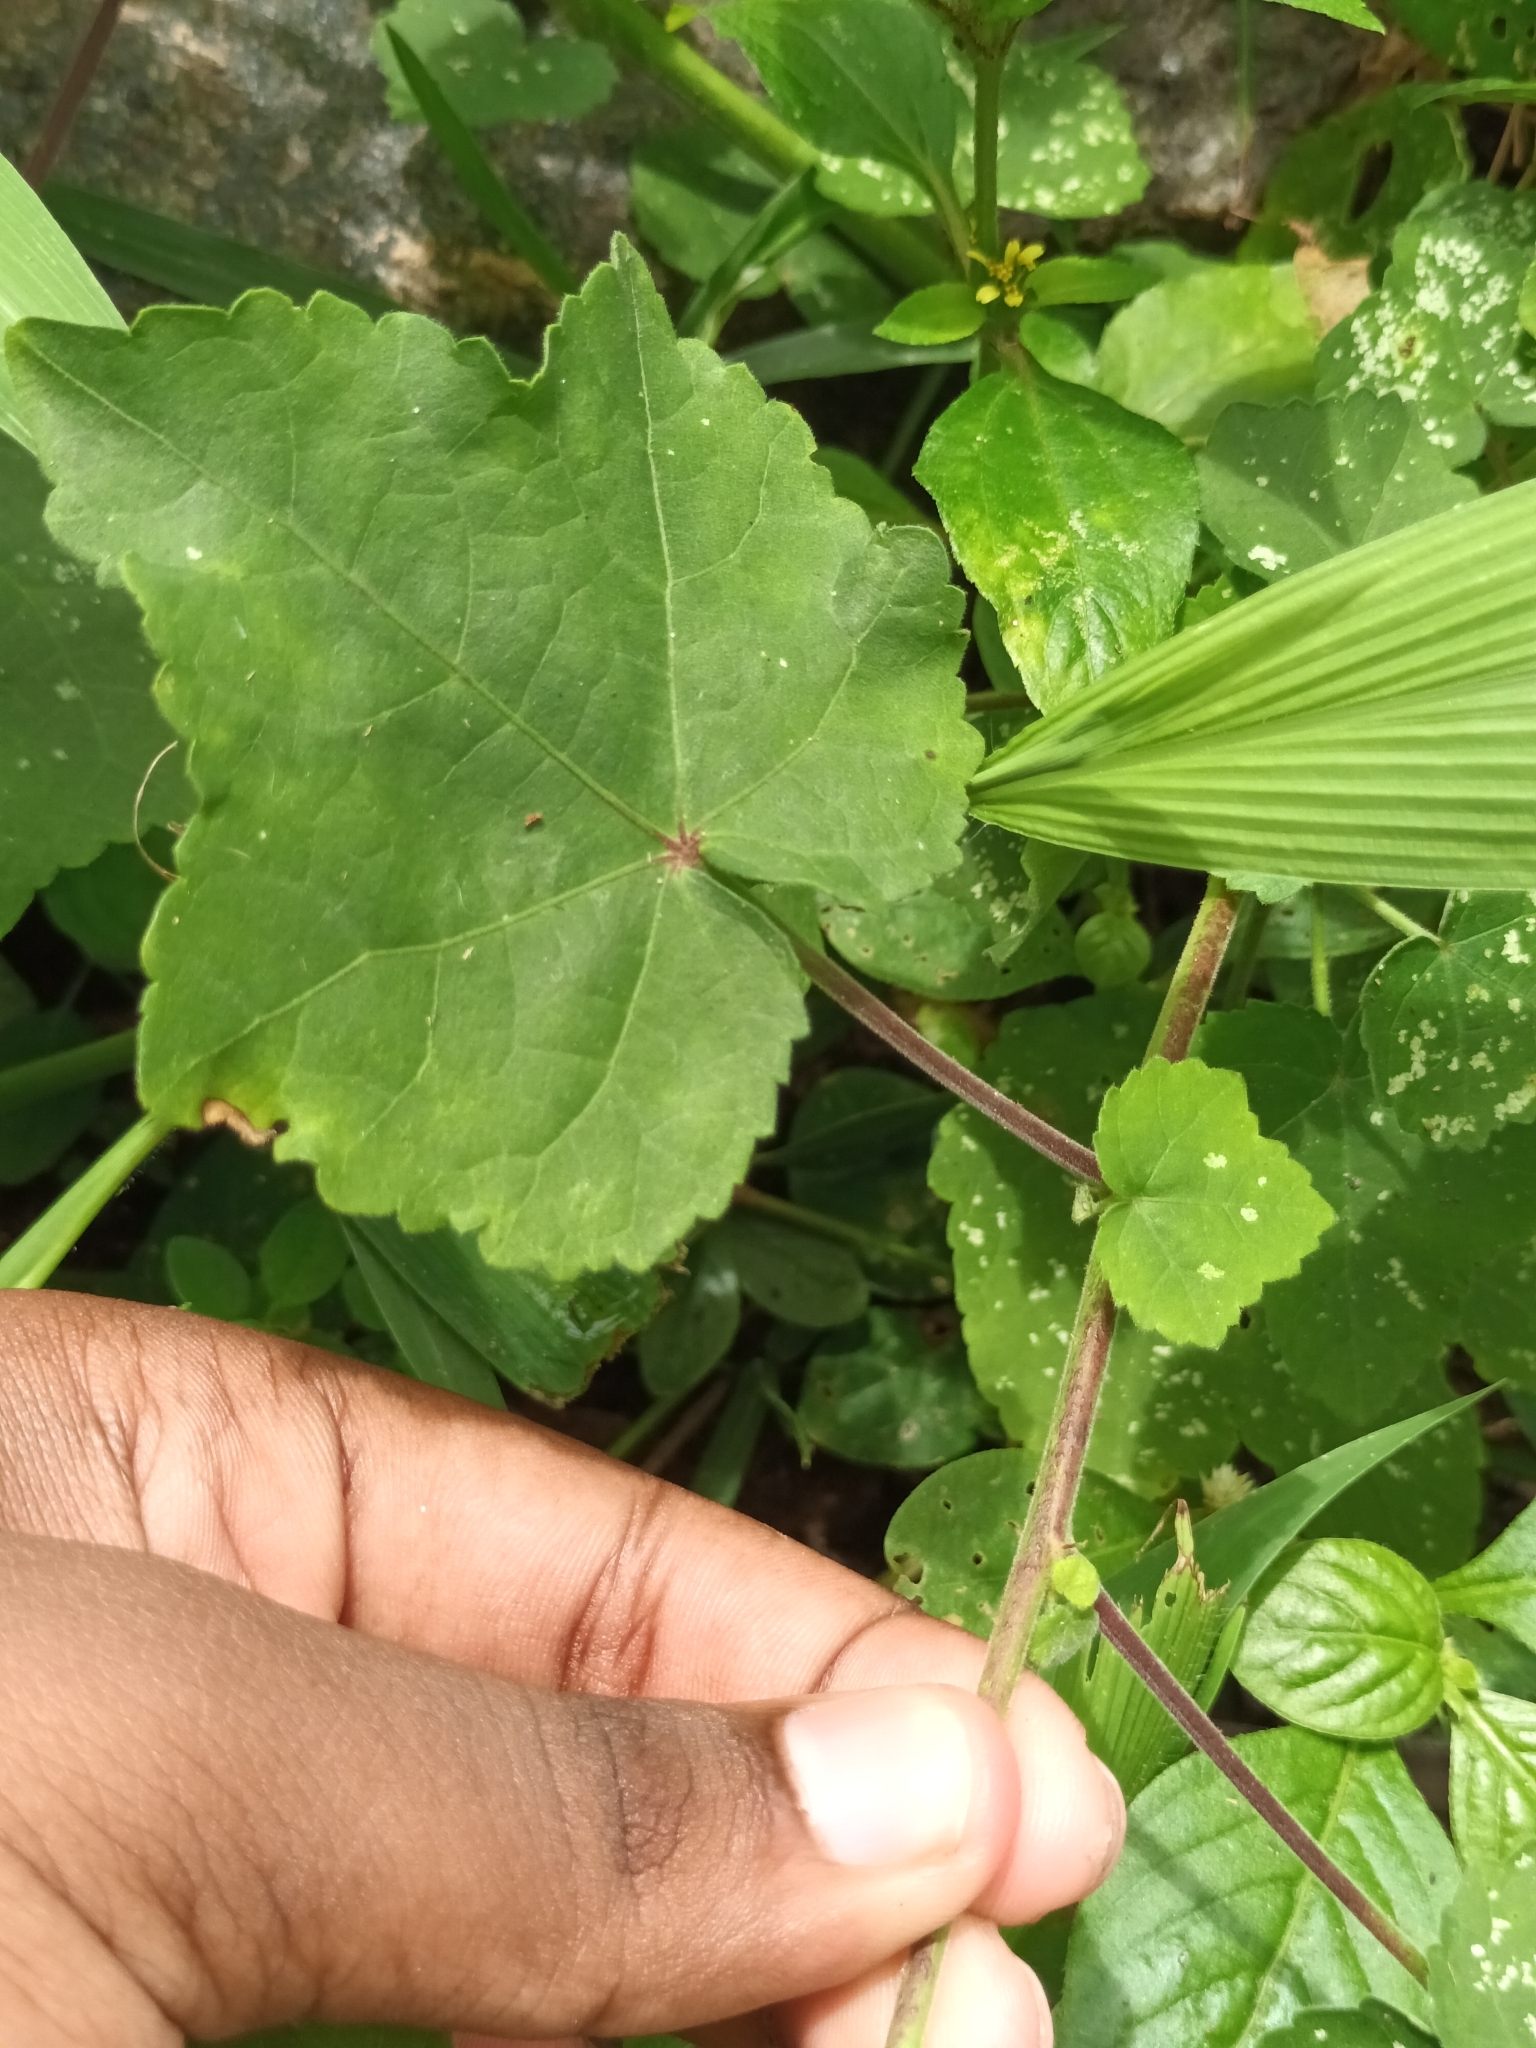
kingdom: Plantae
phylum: Tracheophyta
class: Magnoliopsida
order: Malvales
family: Malvaceae
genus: Hibiscus
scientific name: Hibiscus vitifolius
